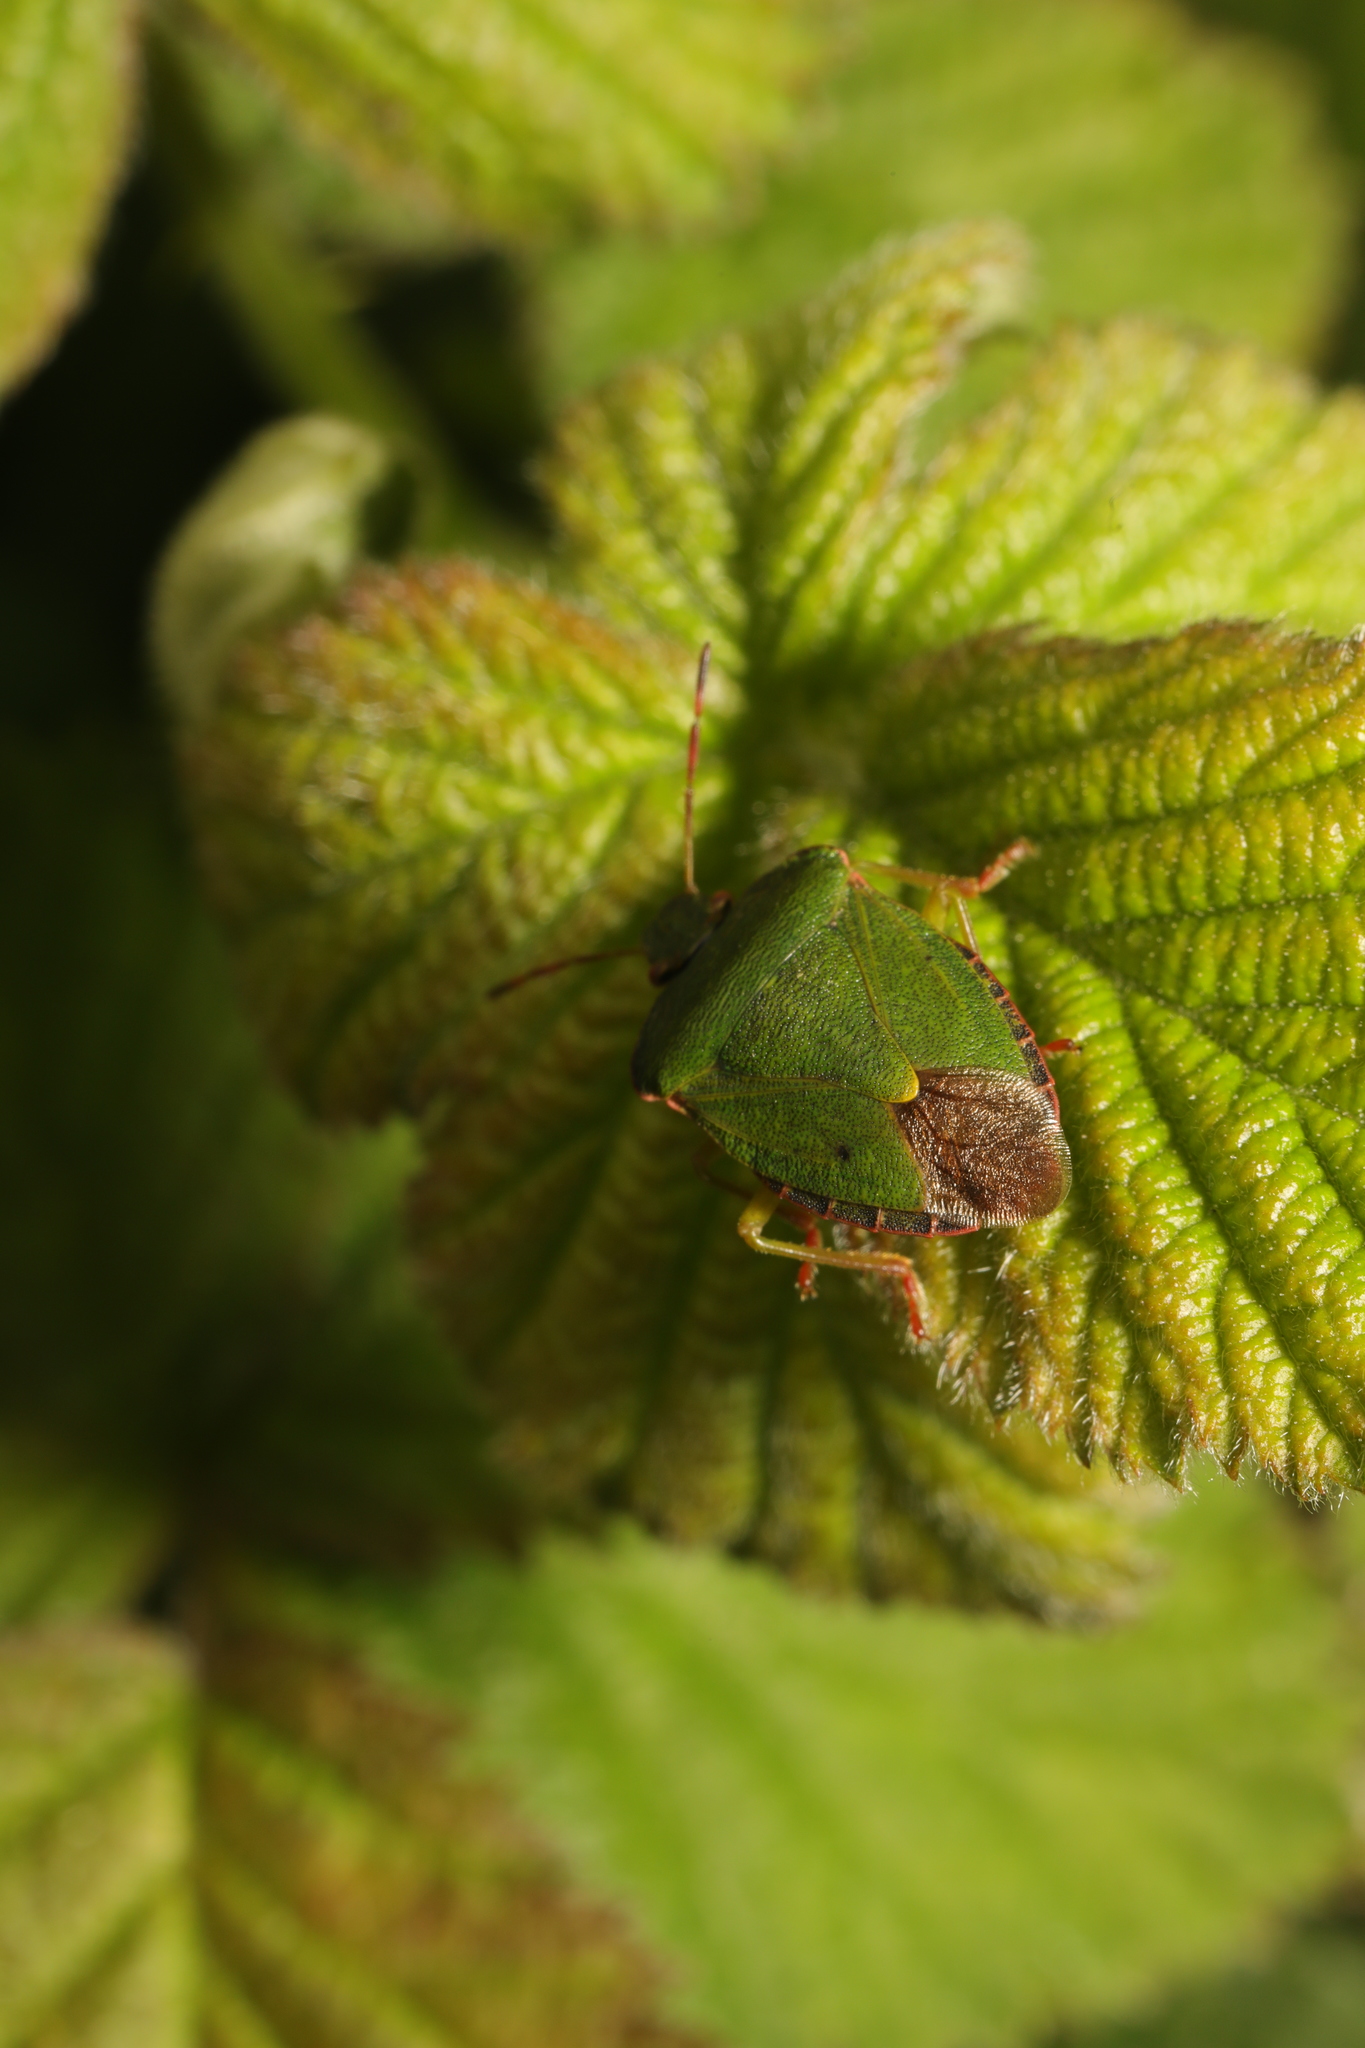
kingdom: Animalia
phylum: Arthropoda
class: Insecta
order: Hemiptera
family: Pentatomidae
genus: Palomena
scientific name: Palomena prasina
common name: Green shieldbug
